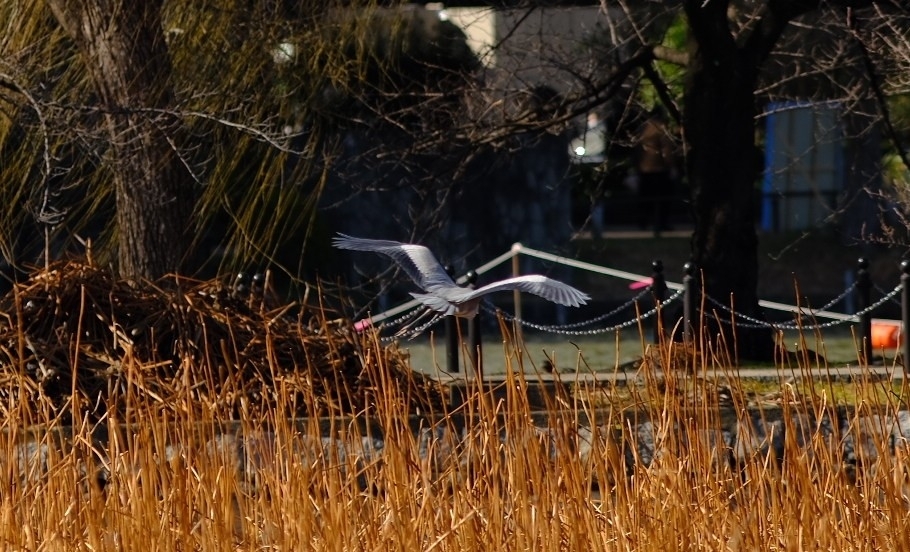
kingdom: Animalia
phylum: Chordata
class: Aves
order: Pelecaniformes
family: Ardeidae
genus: Ardea
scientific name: Ardea cinerea
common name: Grey heron
